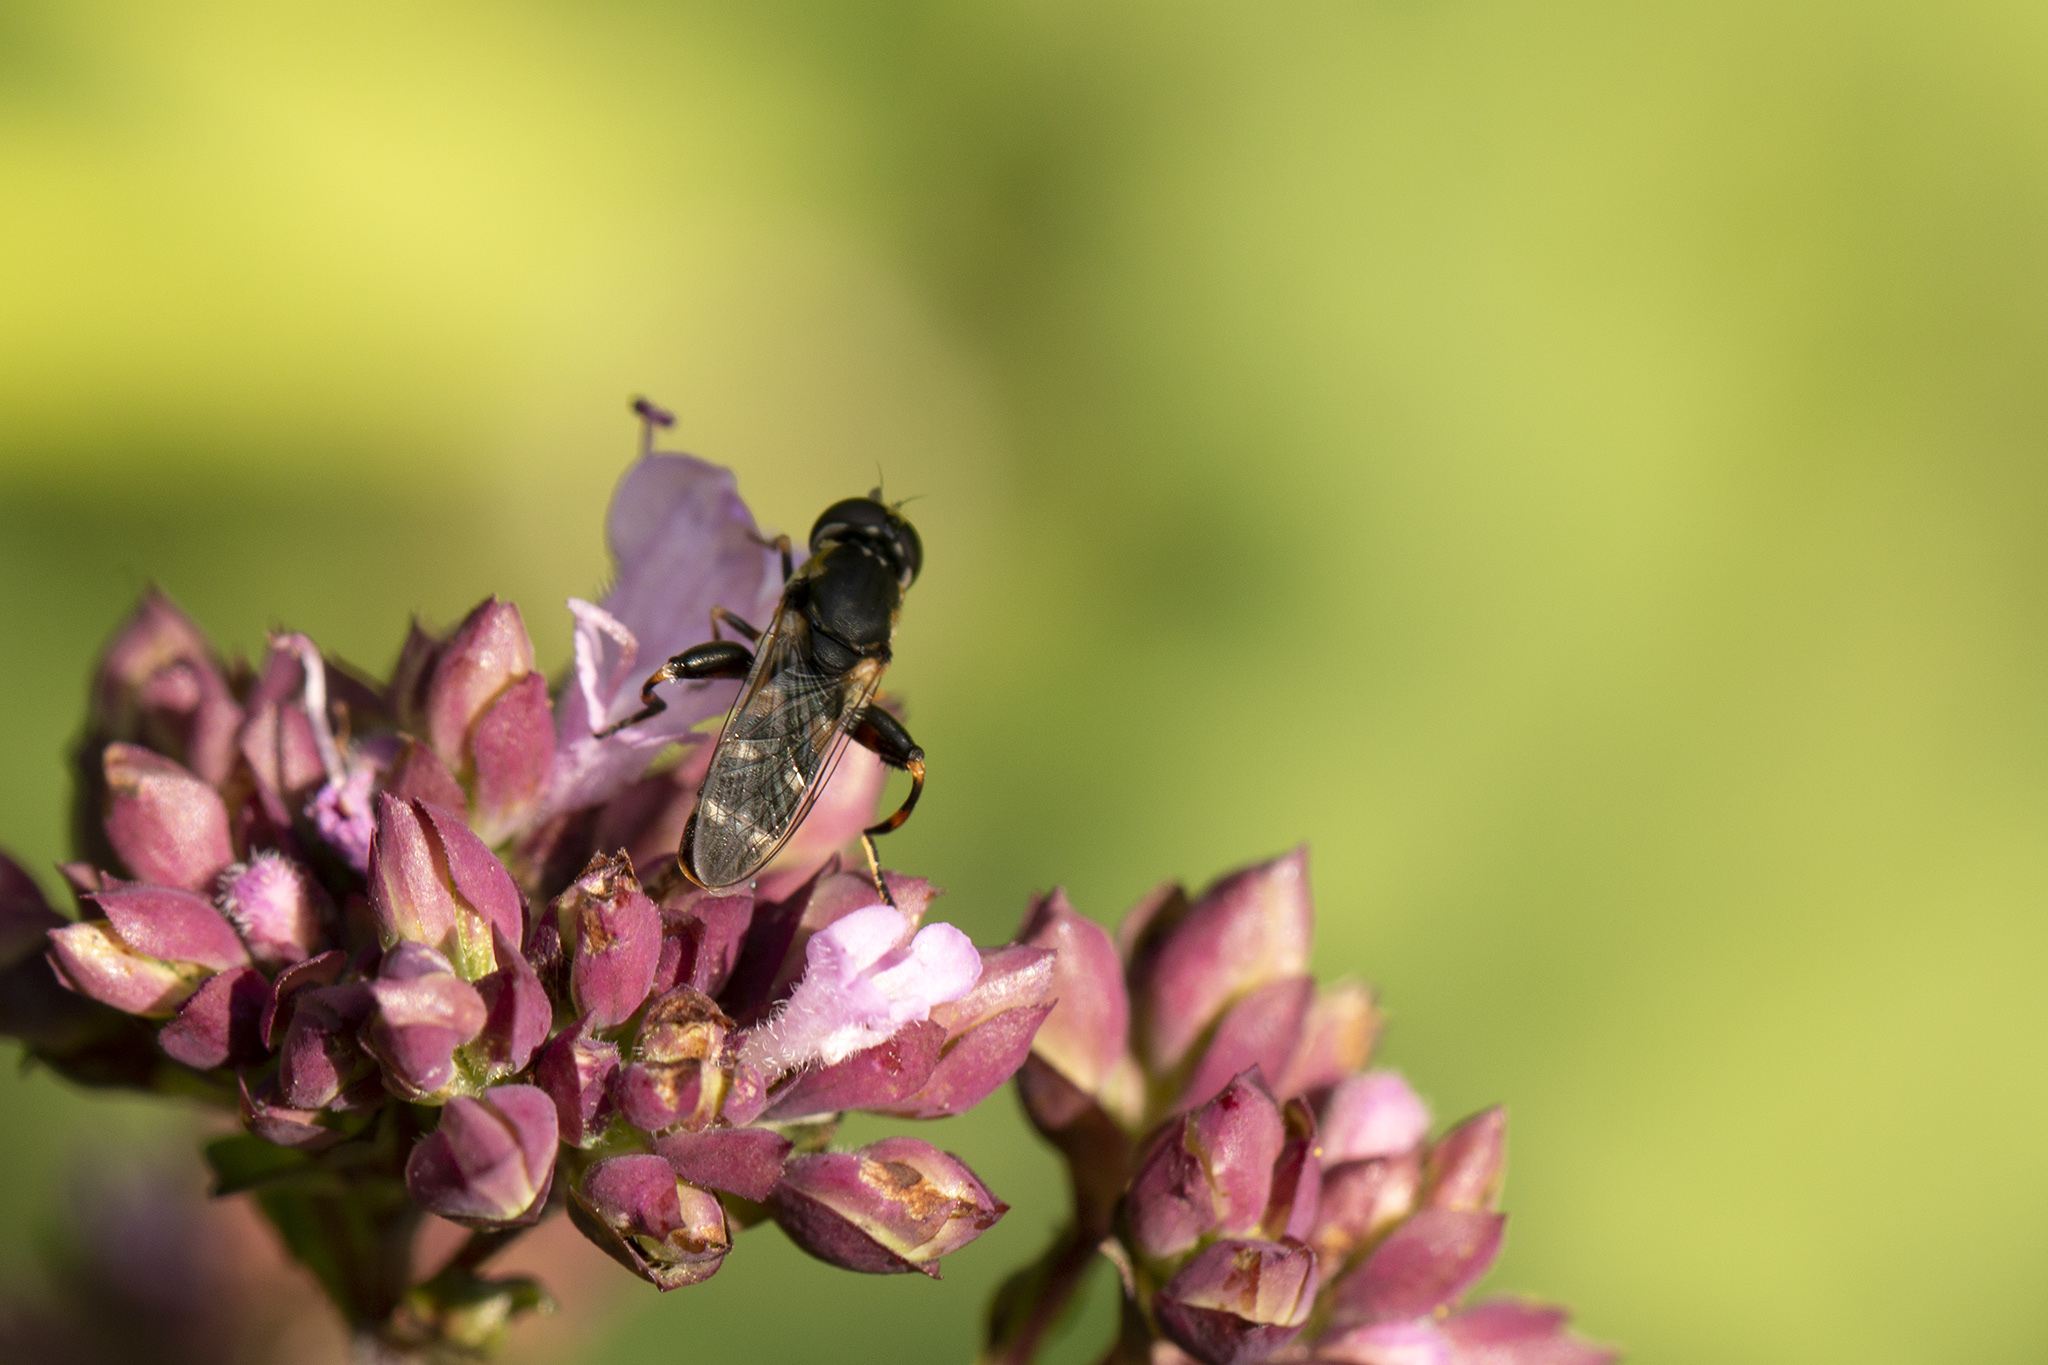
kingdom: Animalia
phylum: Arthropoda
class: Insecta
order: Diptera
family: Syrphidae
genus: Syritta
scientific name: Syritta pipiens
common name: Hover fly
